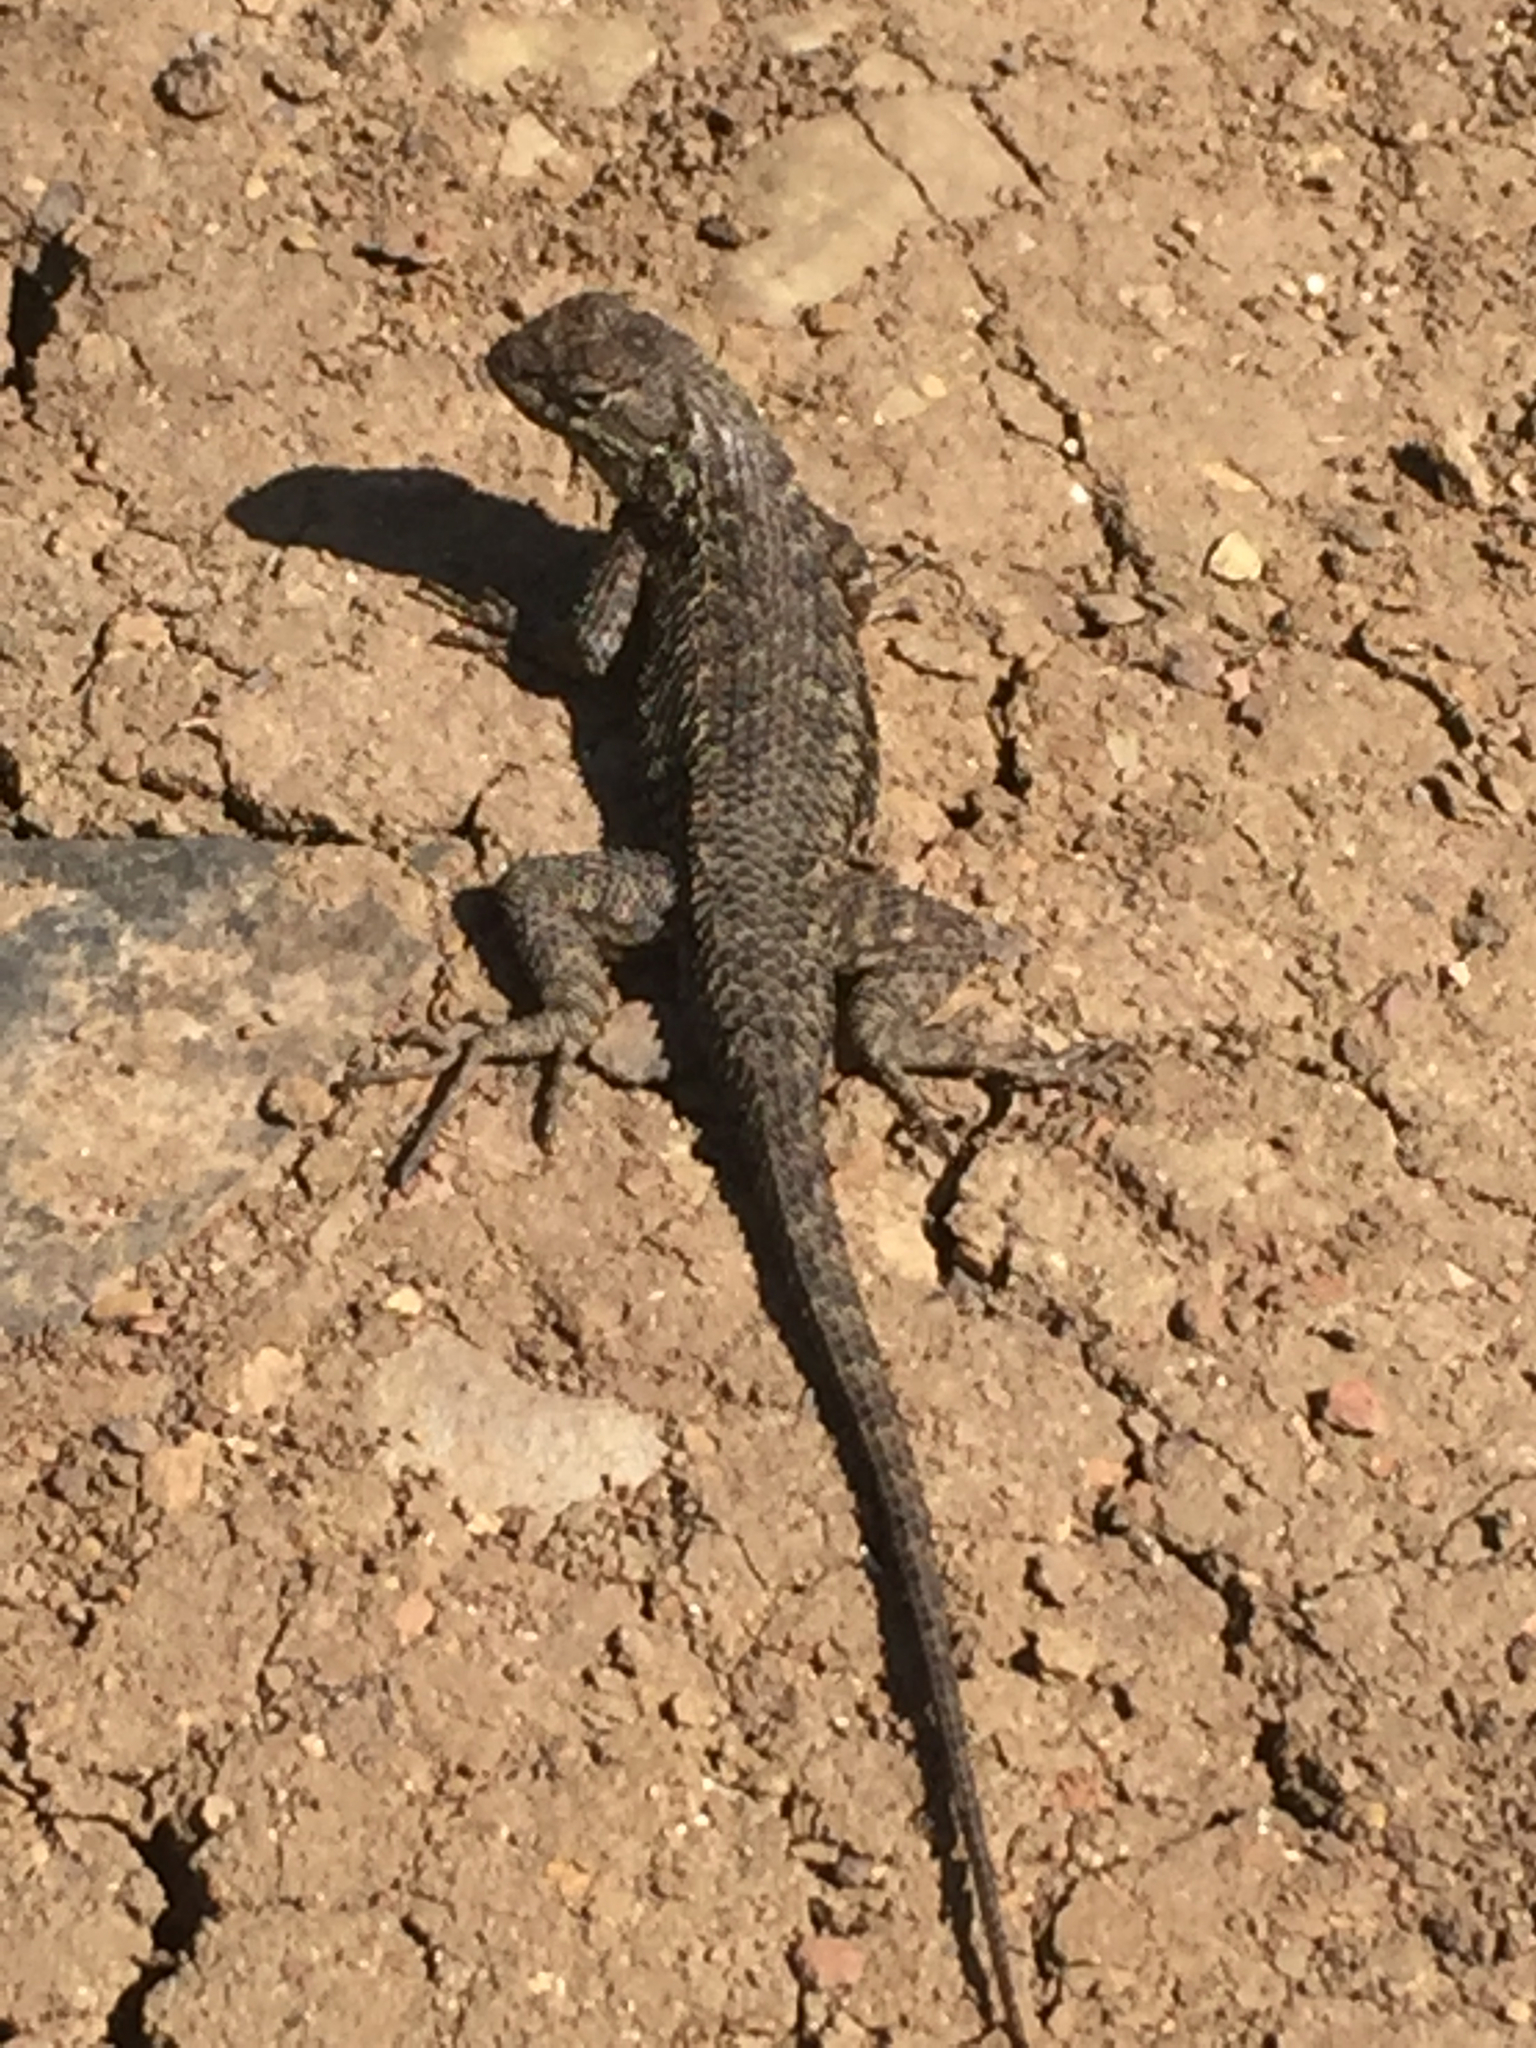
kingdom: Animalia
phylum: Chordata
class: Squamata
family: Phrynosomatidae
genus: Sceloporus
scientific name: Sceloporus occidentalis
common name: Western fence lizard
